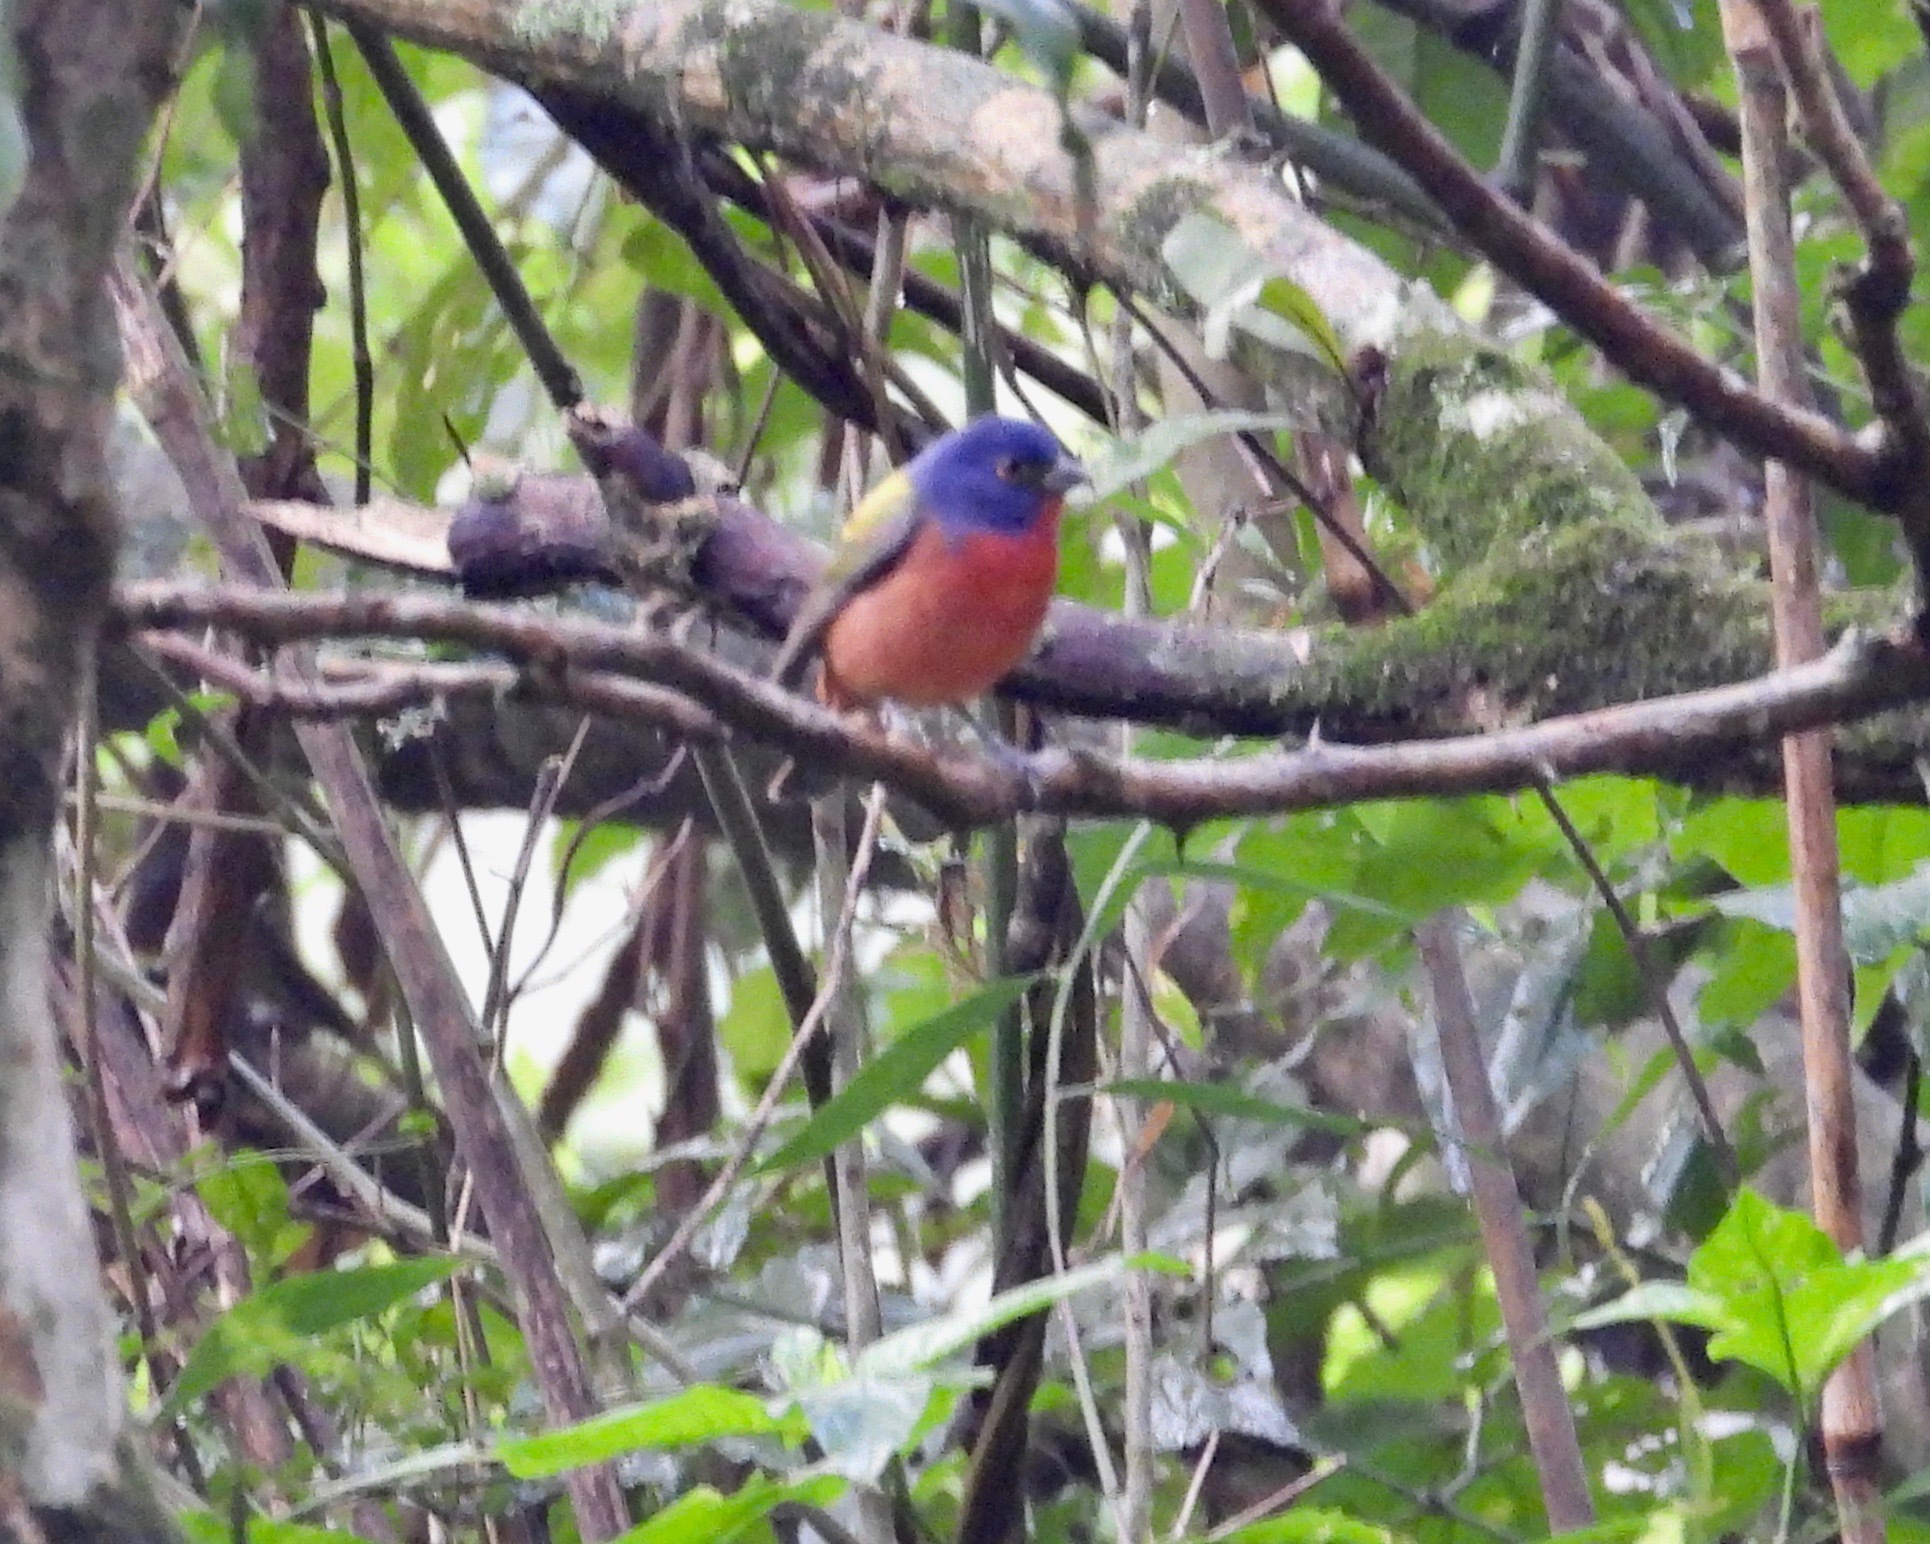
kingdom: Animalia
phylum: Chordata
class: Aves
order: Passeriformes
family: Cardinalidae
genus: Passerina
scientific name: Passerina ciris
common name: Painted bunting
